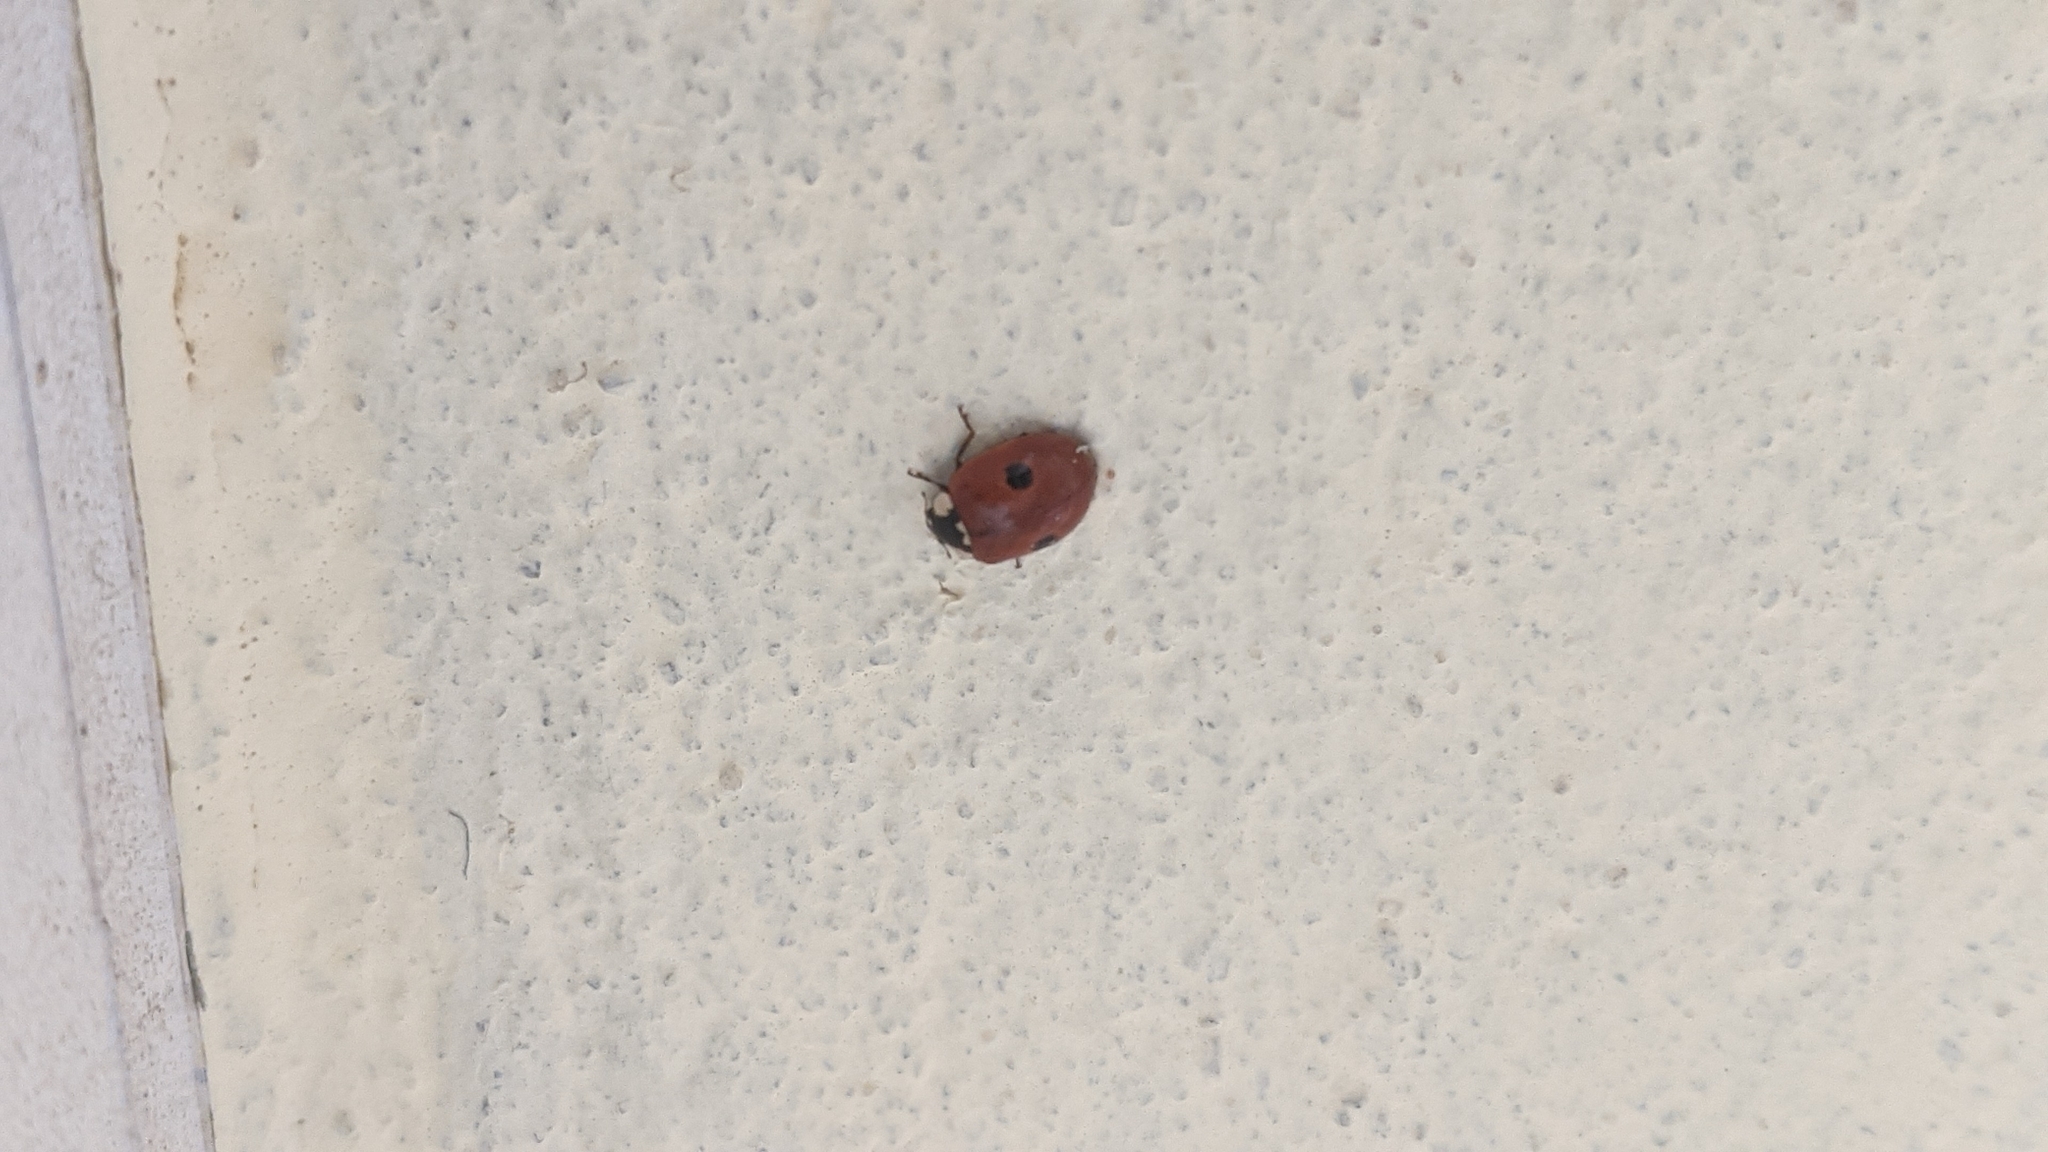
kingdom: Animalia
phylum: Arthropoda
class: Insecta
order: Coleoptera
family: Coccinellidae
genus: Adalia
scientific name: Adalia bipunctata
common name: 2-spot ladybird
